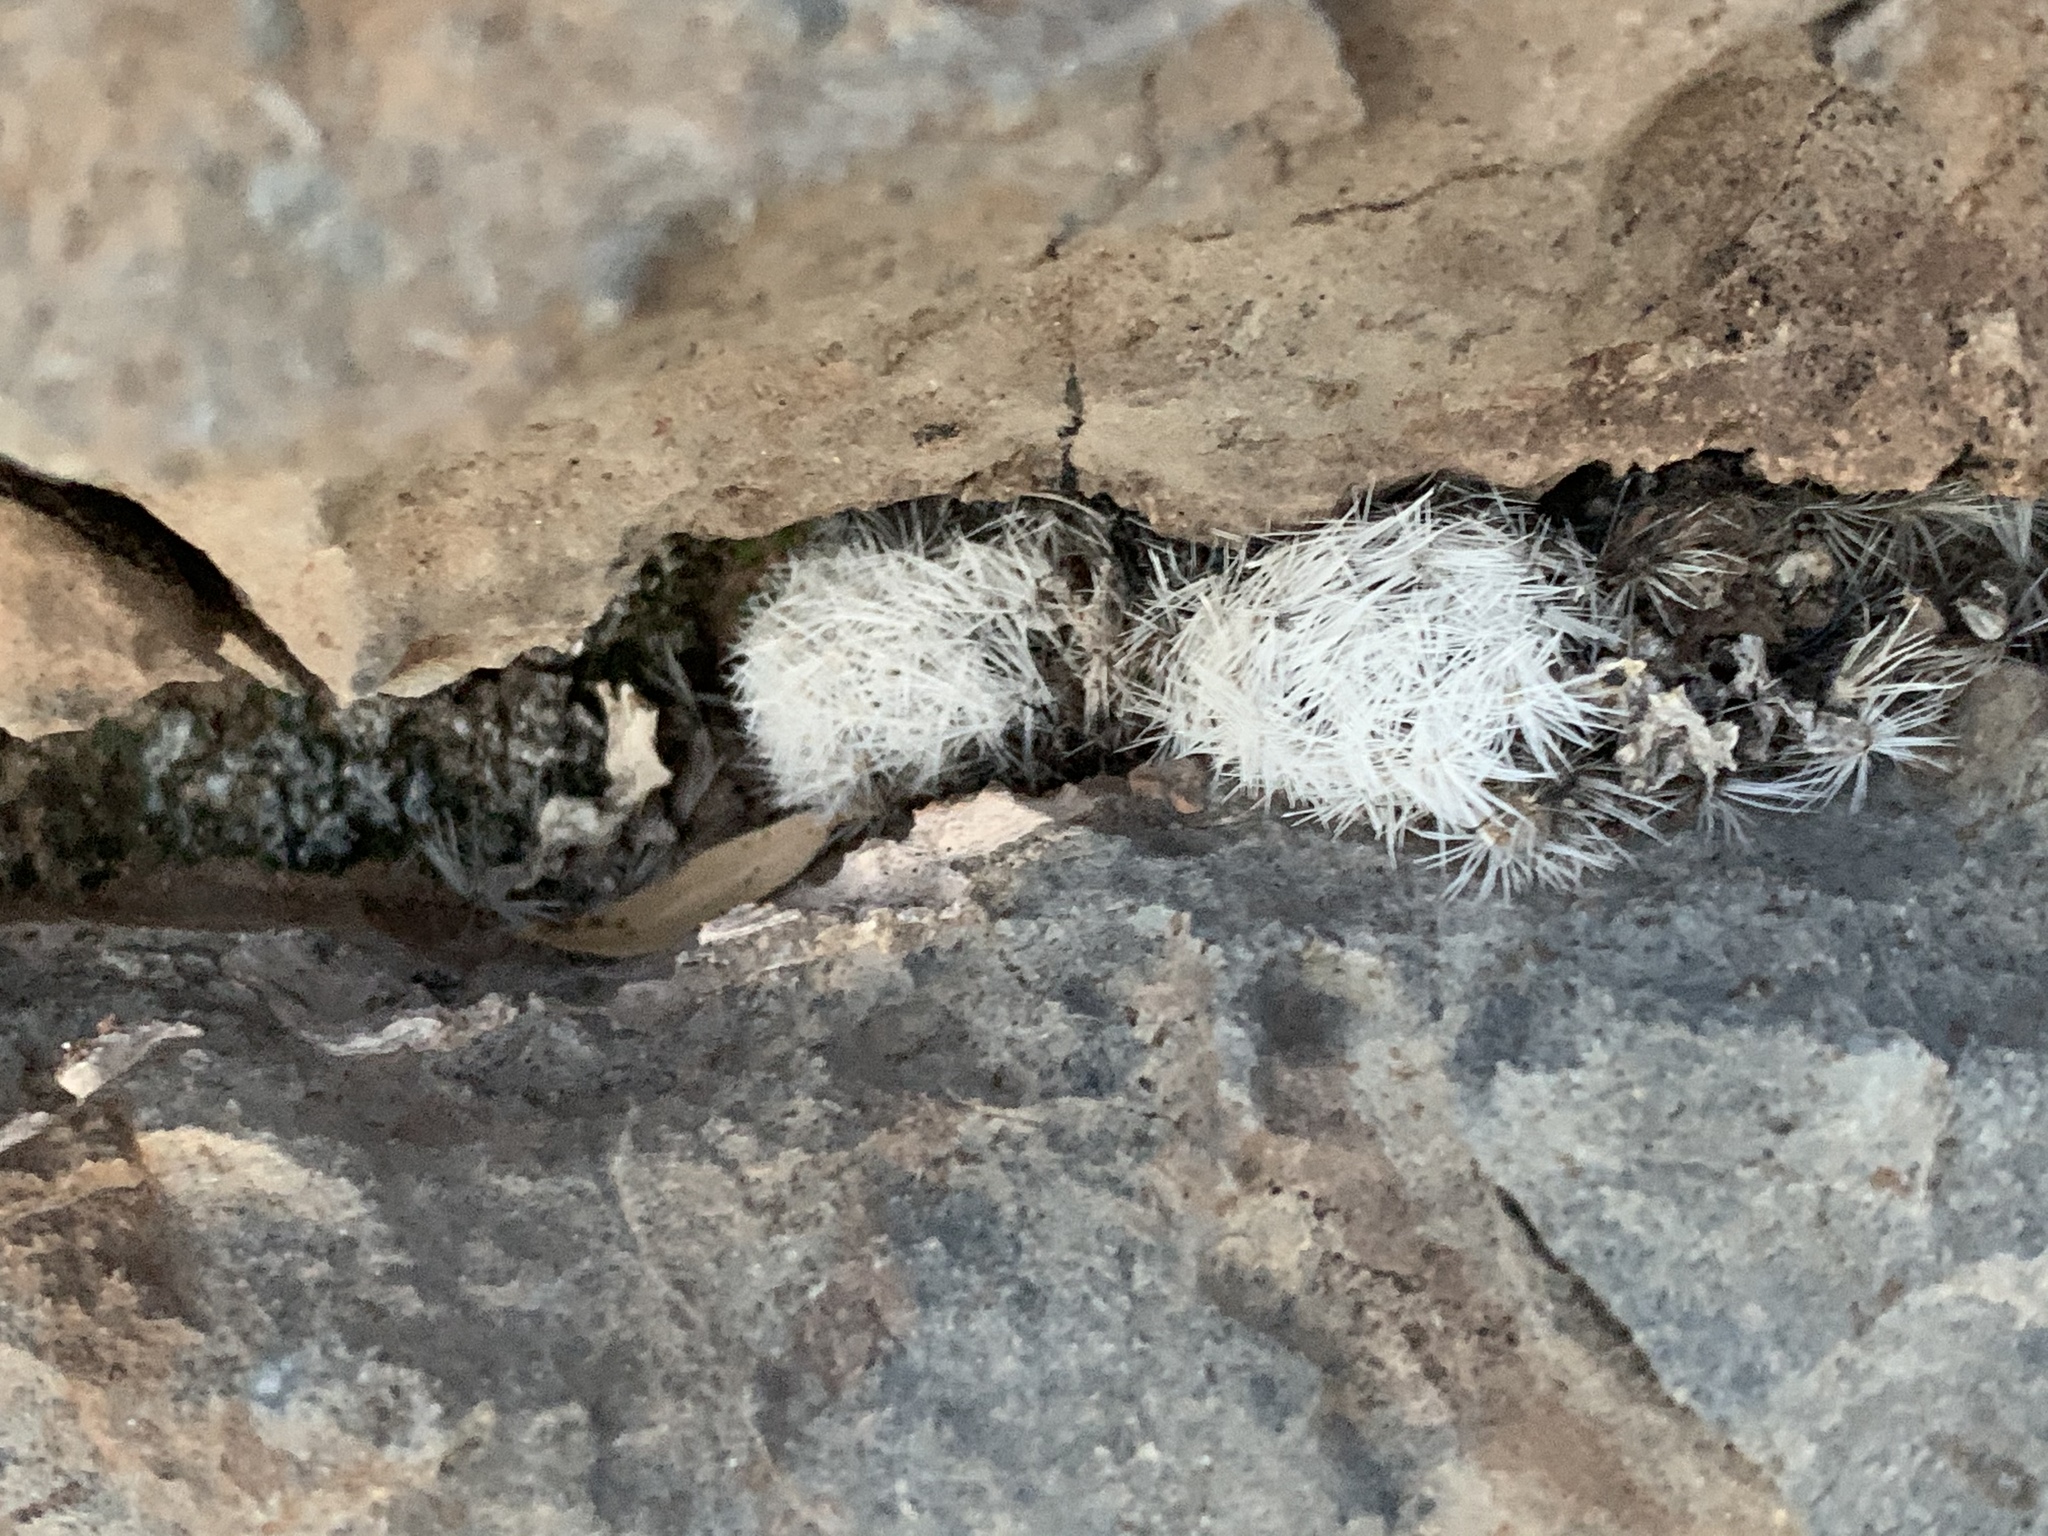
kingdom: Plantae
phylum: Tracheophyta
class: Magnoliopsida
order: Caryophyllales
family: Cactaceae
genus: Mammillaria
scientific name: Mammillaria lasiacantha
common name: Lace-spine nipple cactus
